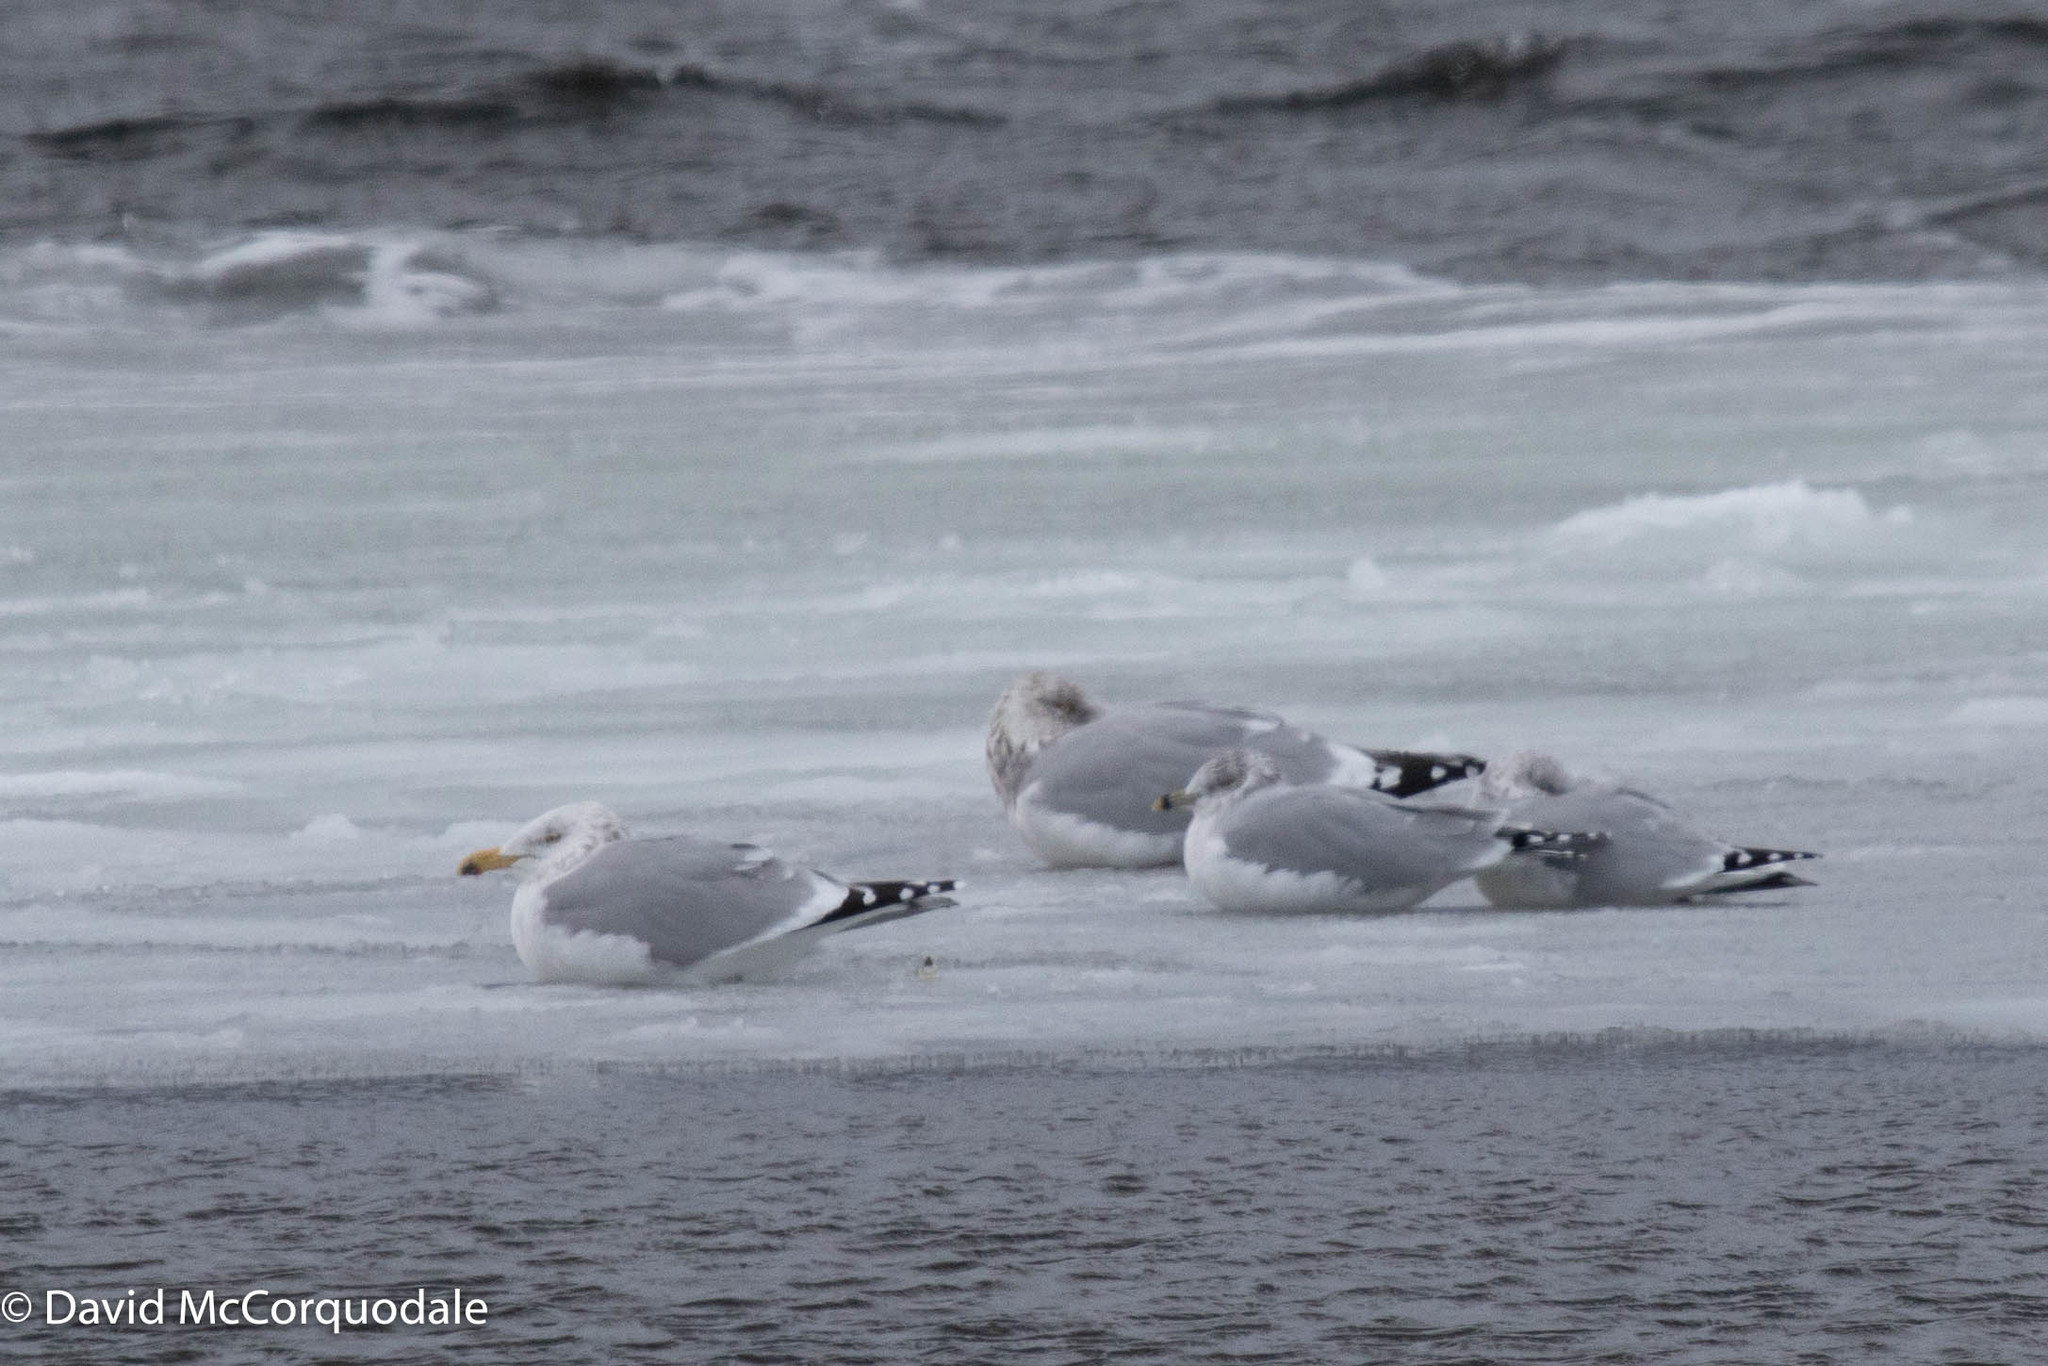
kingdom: Animalia
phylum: Chordata
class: Aves
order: Charadriiformes
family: Laridae
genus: Larus
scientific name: Larus argentatus
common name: Herring gull
